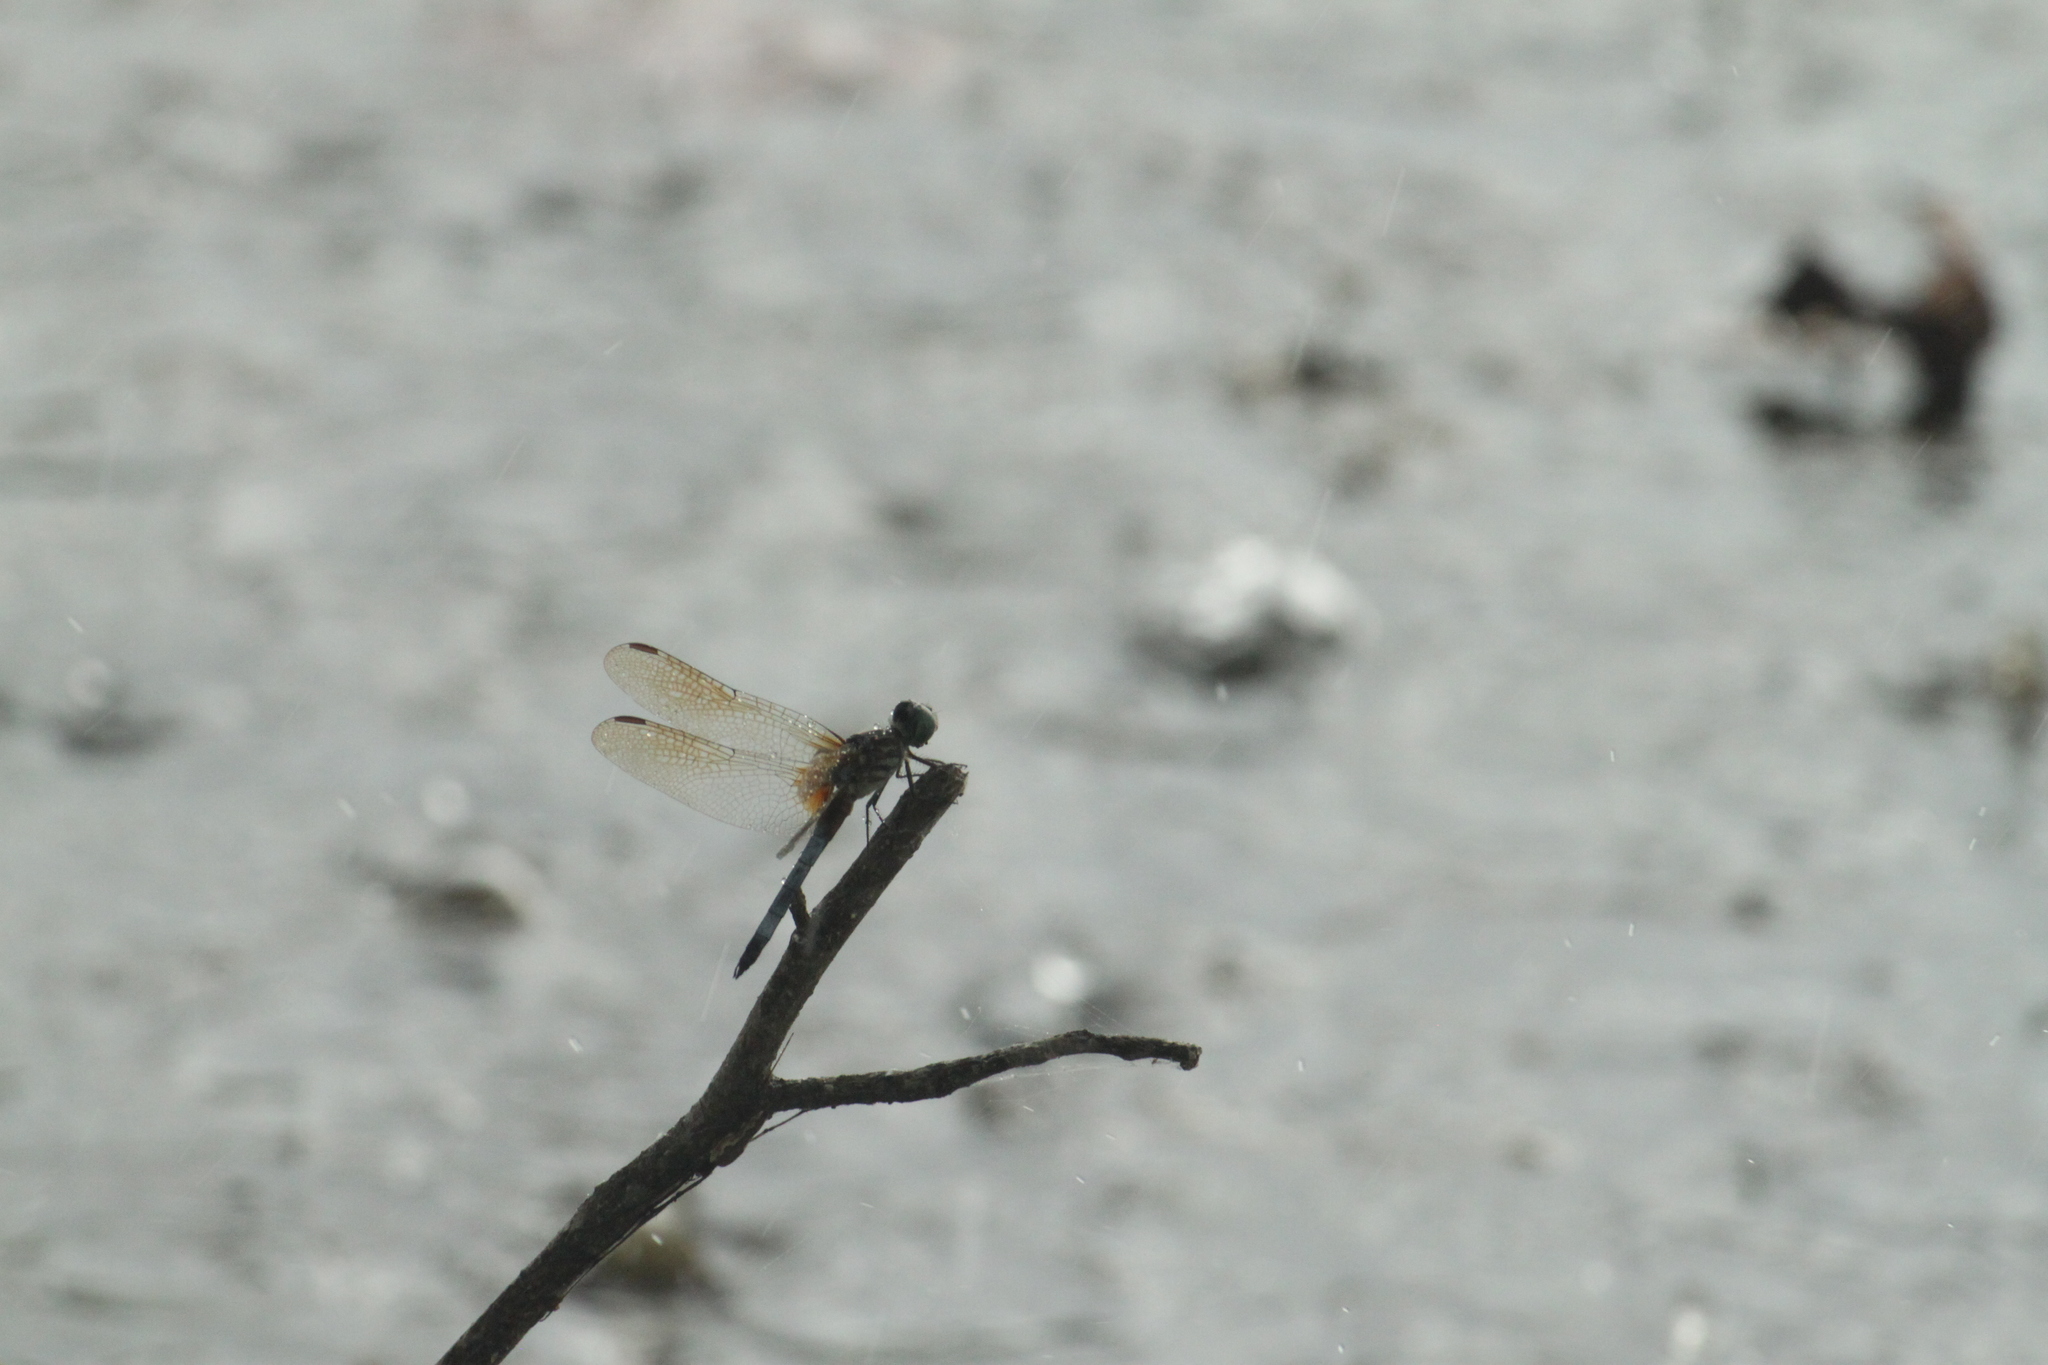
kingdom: Animalia
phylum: Arthropoda
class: Insecta
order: Odonata
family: Libellulidae
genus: Pachydiplax
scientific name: Pachydiplax longipennis
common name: Blue dasher
